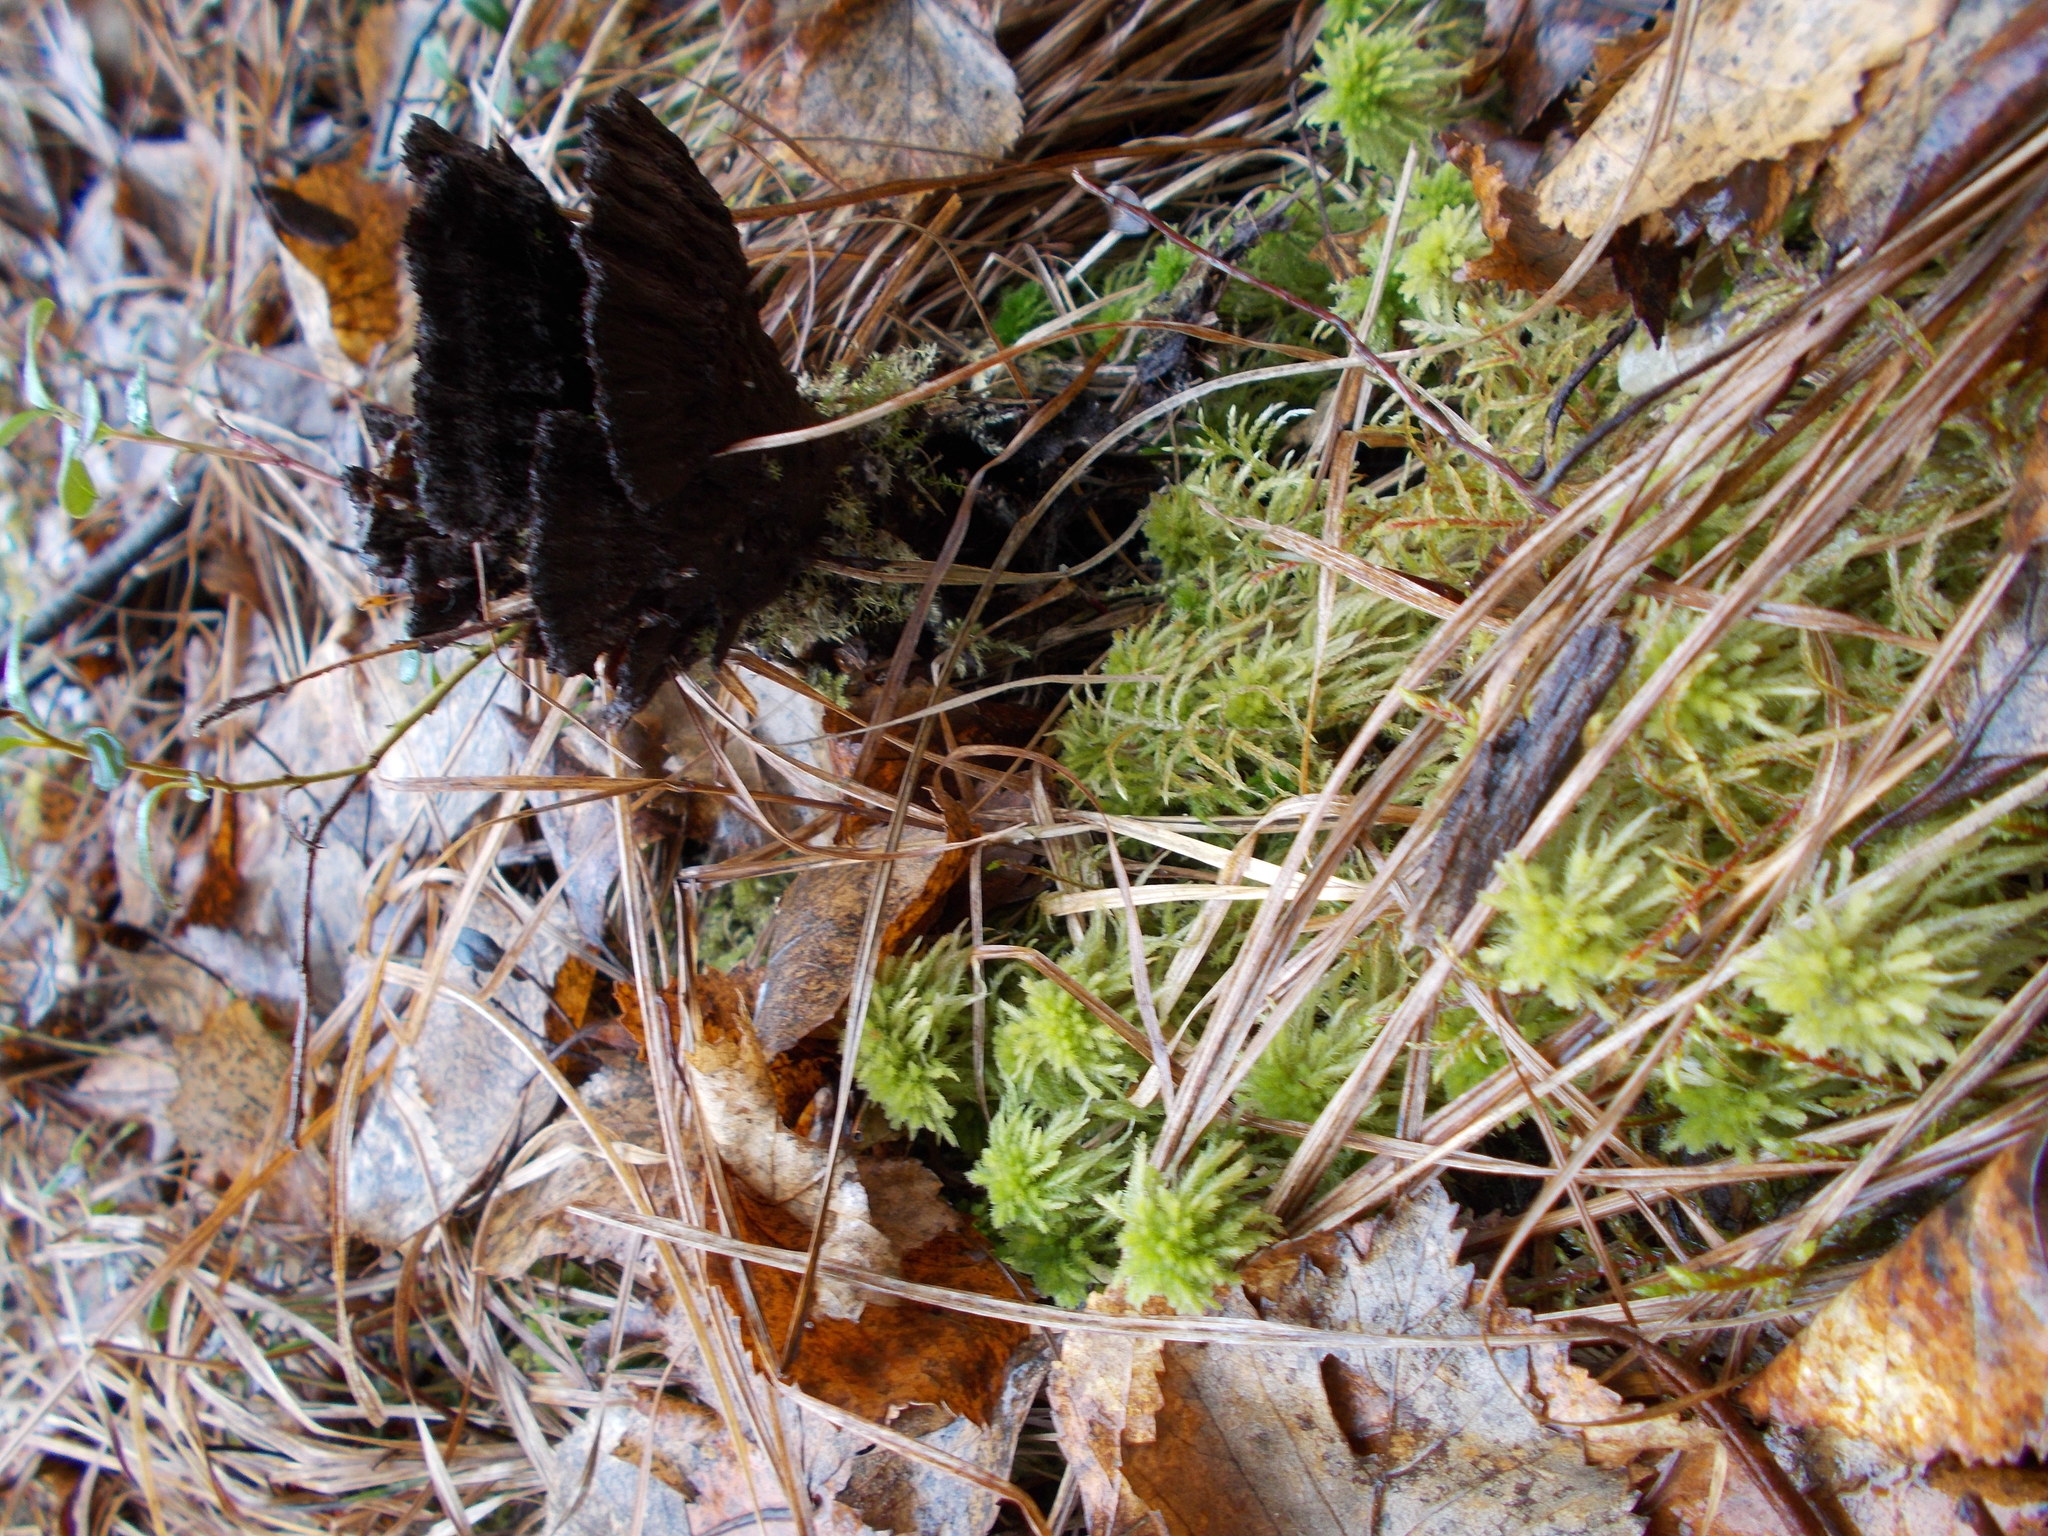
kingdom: Fungi
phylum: Basidiomycota
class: Agaricomycetes
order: Thelephorales
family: Thelephoraceae
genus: Thelephora
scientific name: Thelephora terrestris
